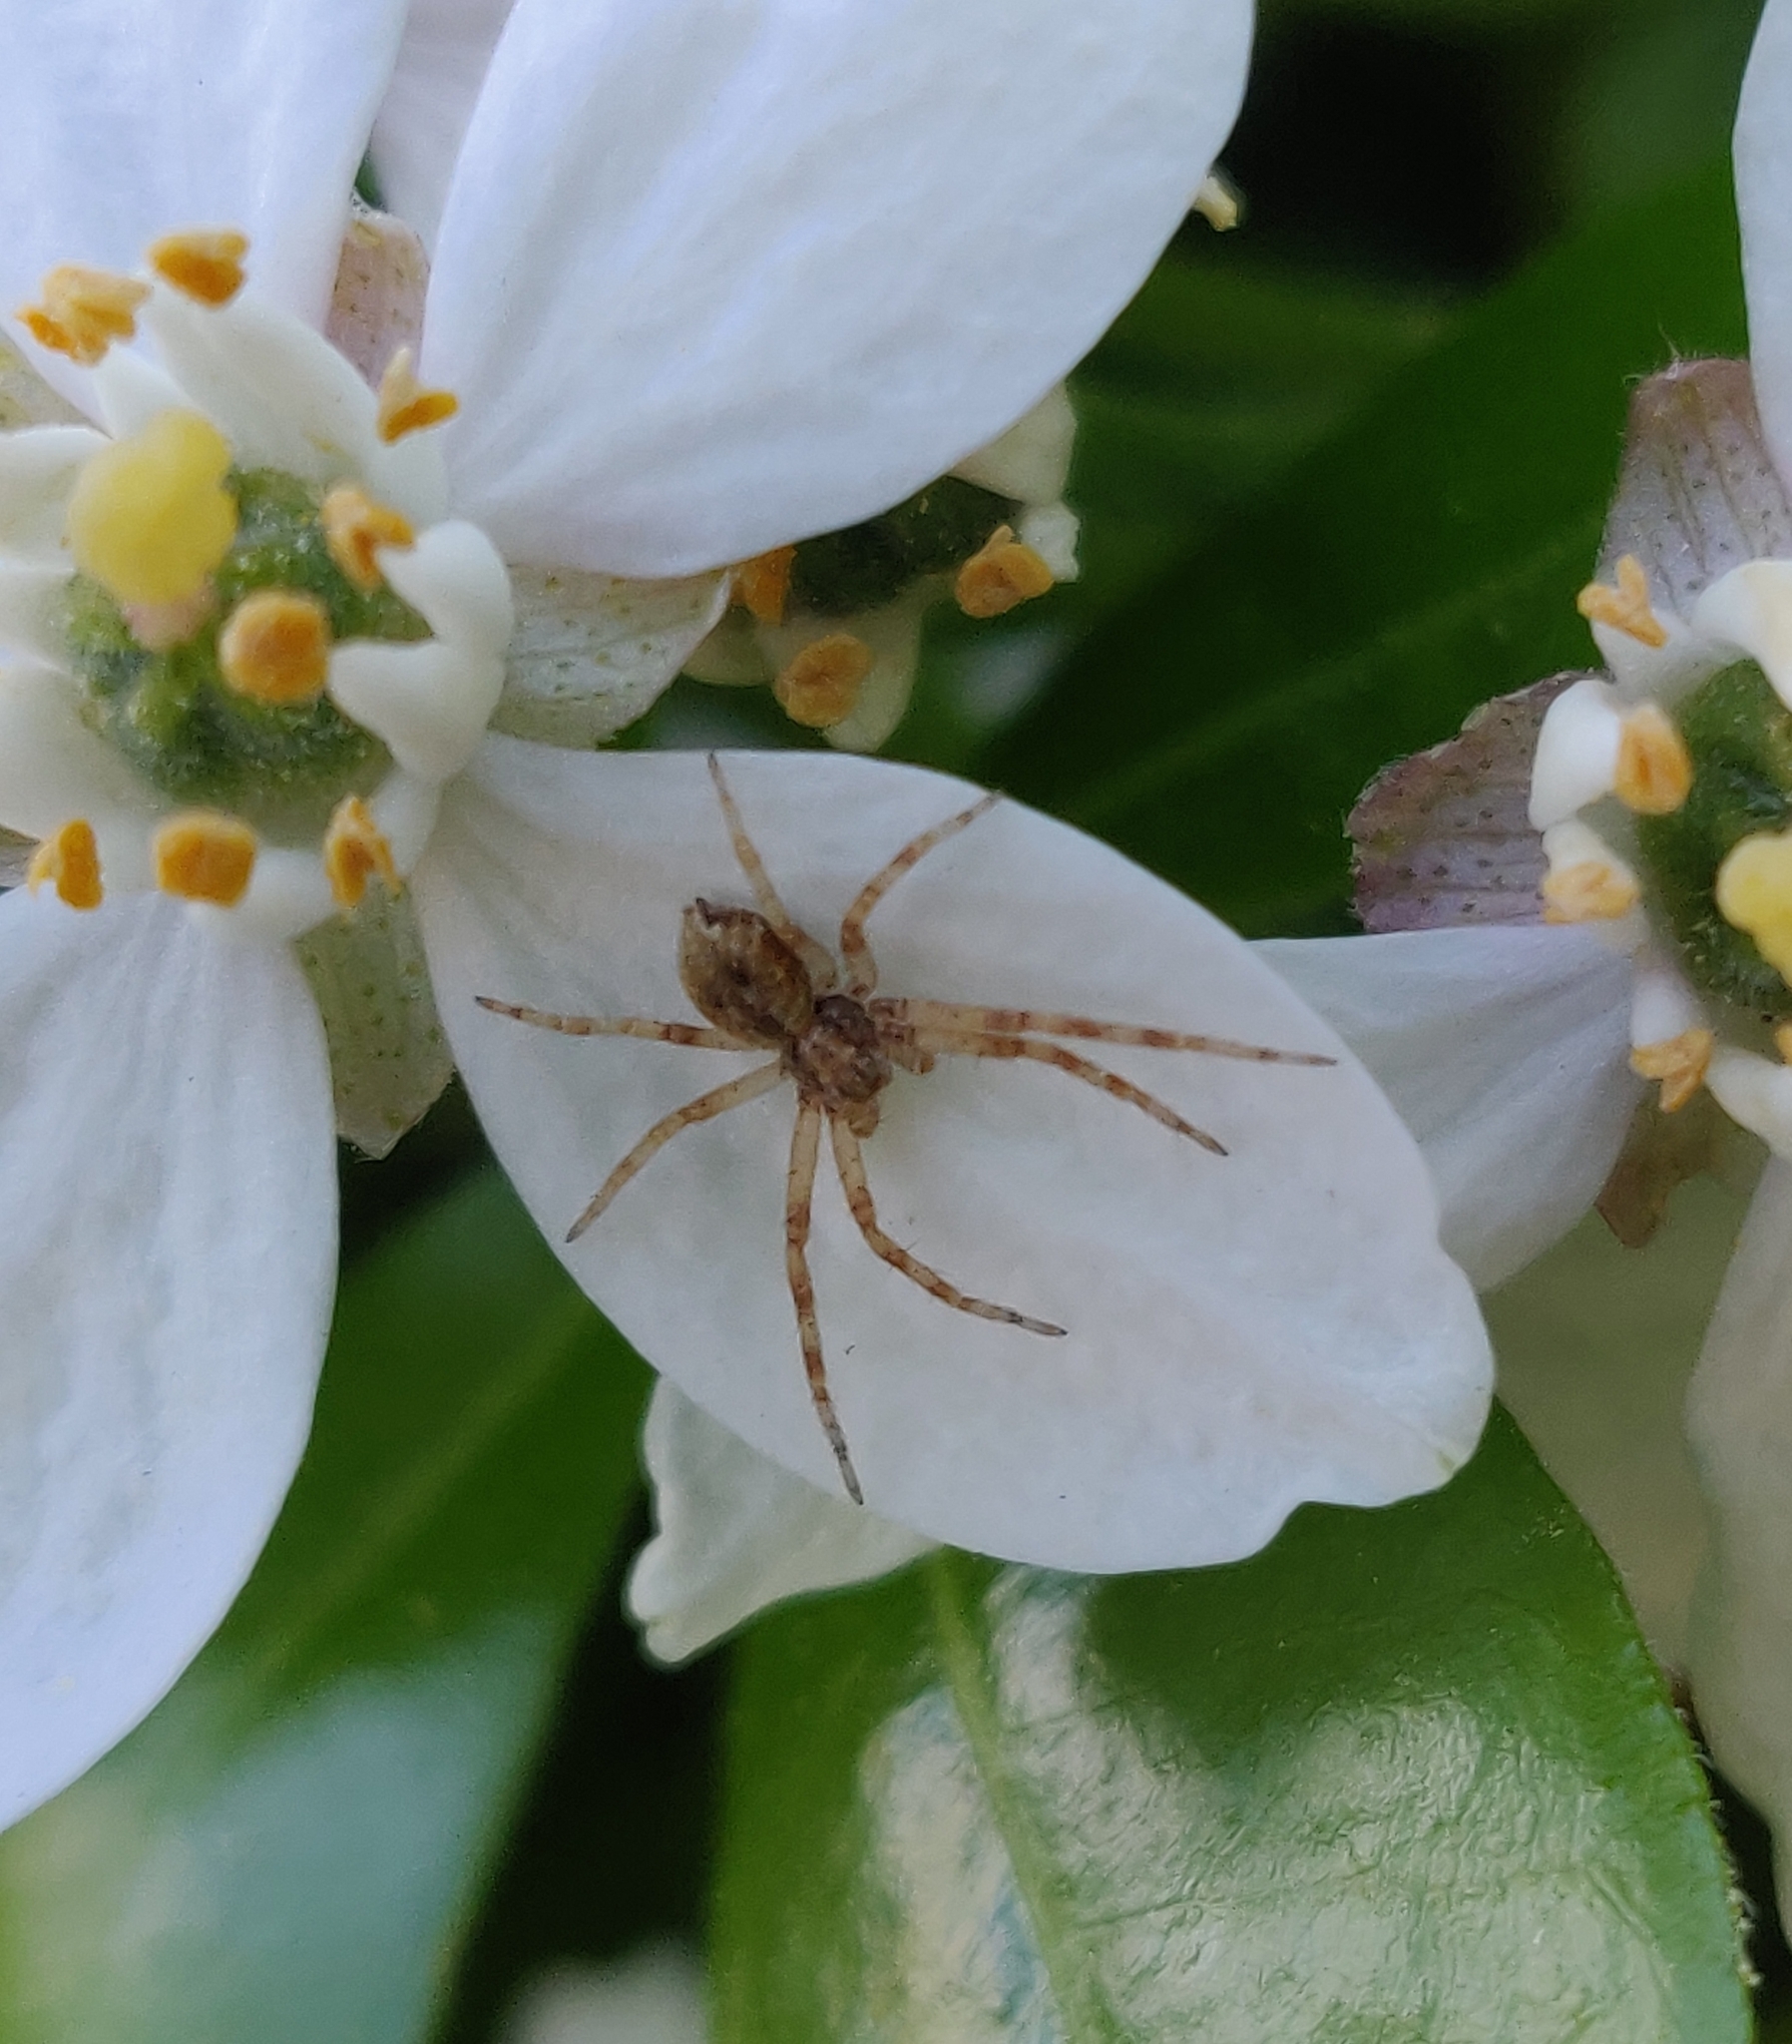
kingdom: Animalia
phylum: Arthropoda
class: Arachnida
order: Araneae
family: Philodromidae
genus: Philodromus
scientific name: Philodromus
